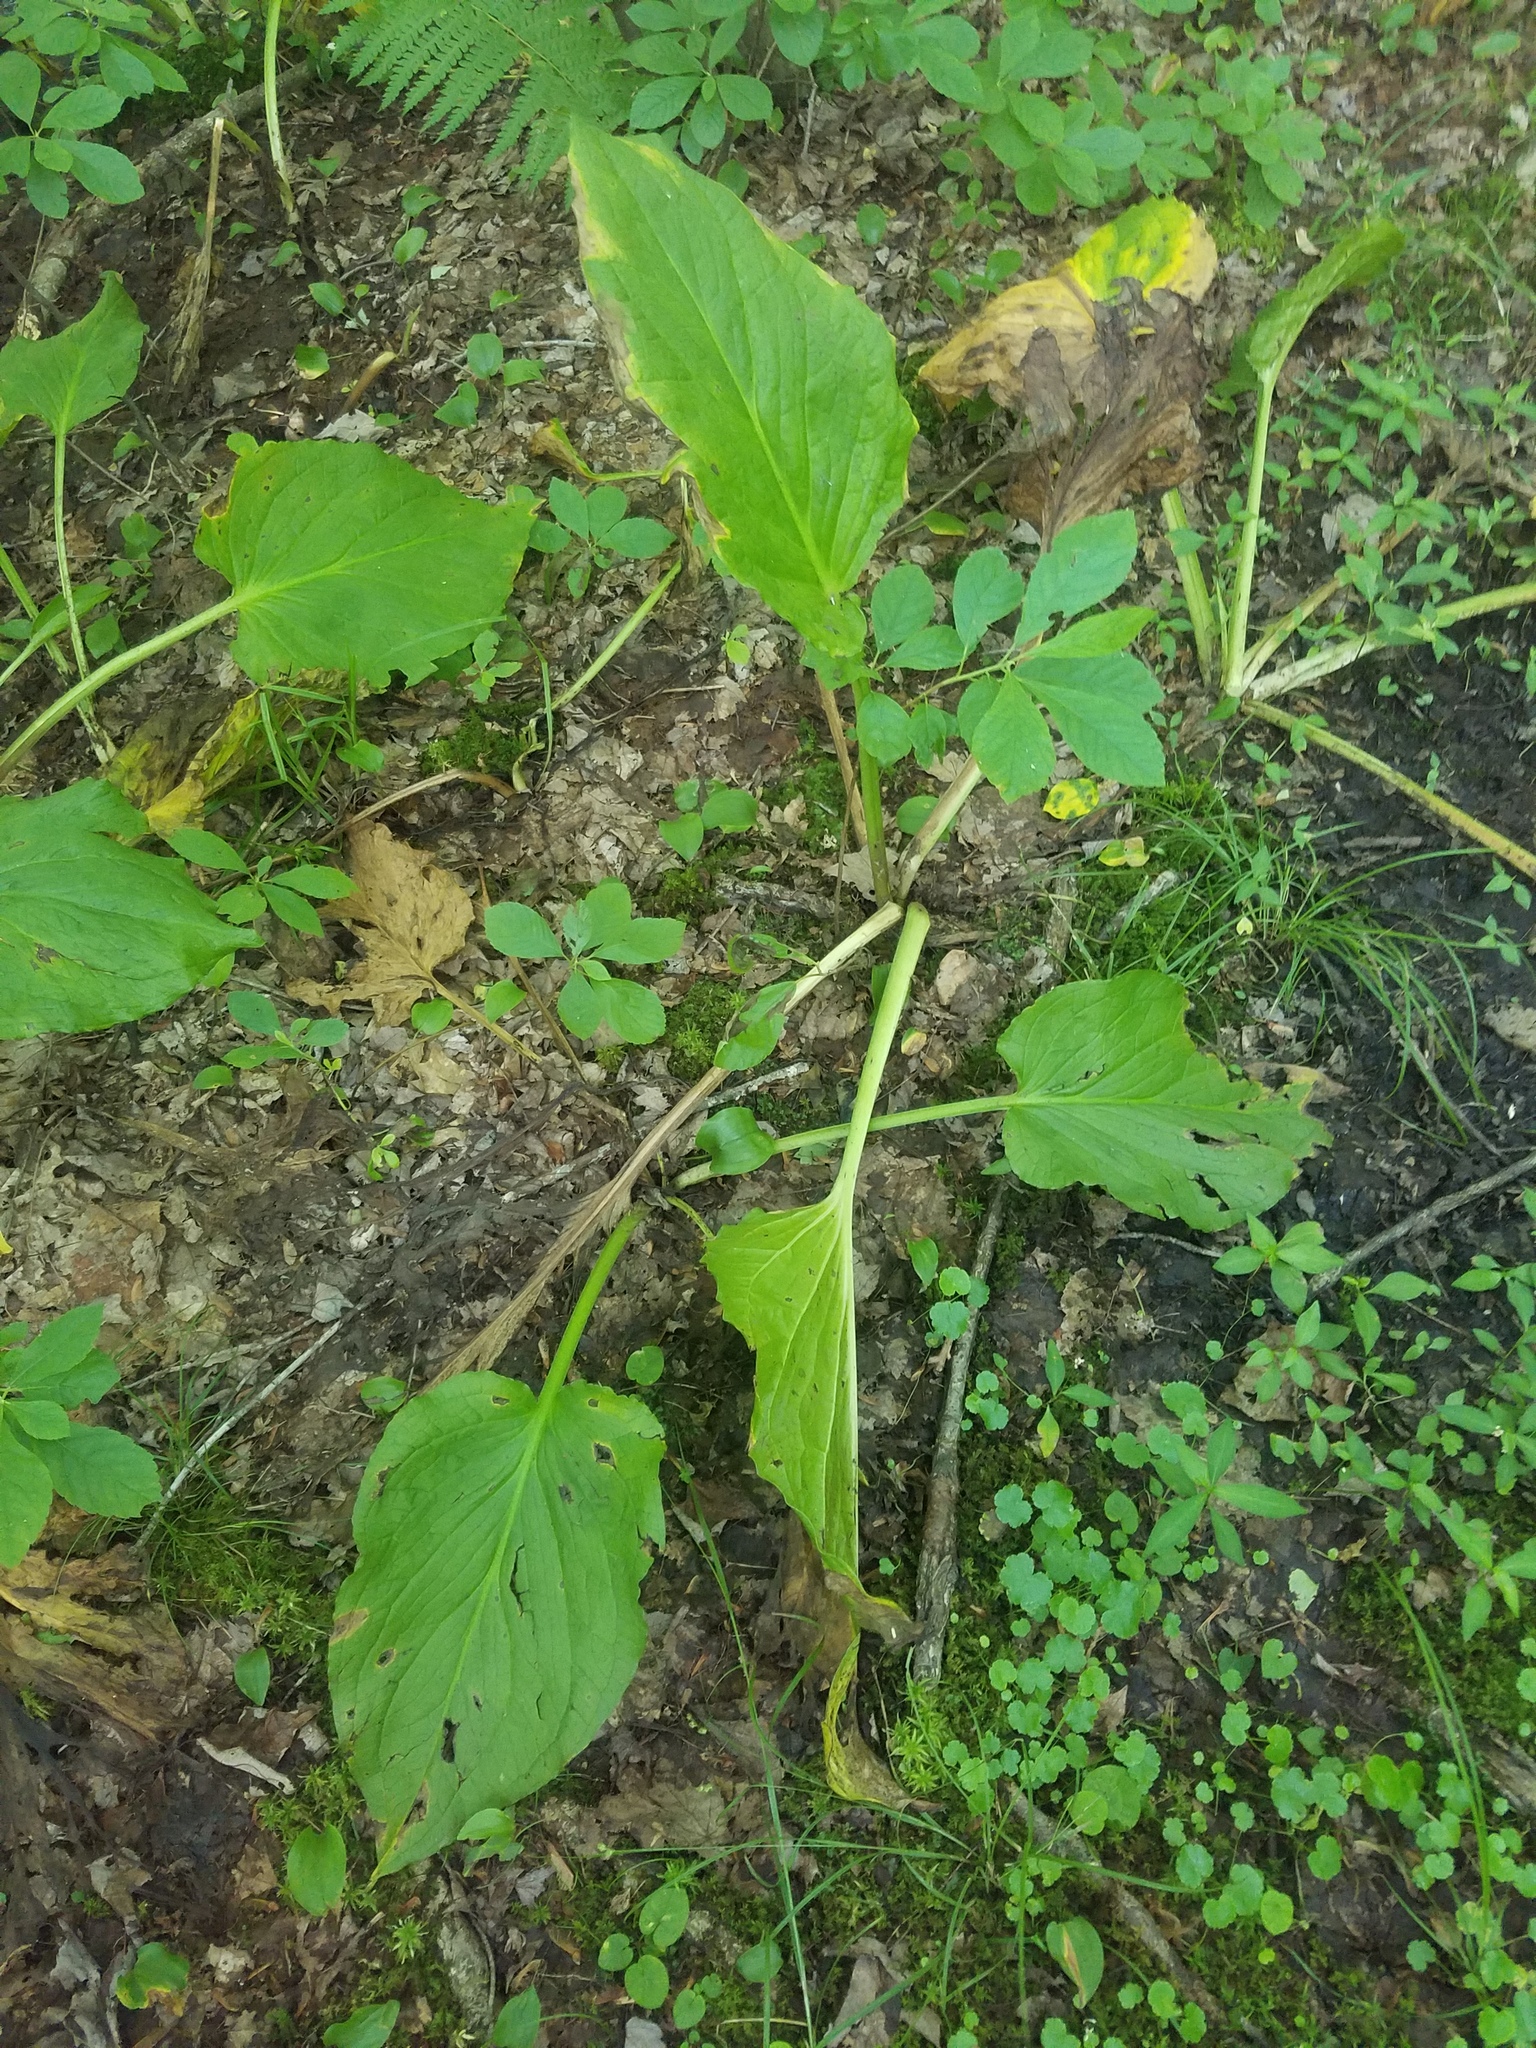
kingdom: Plantae
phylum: Tracheophyta
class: Liliopsida
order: Alismatales
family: Araceae
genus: Symplocarpus
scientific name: Symplocarpus foetidus
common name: Eastern skunk cabbage
